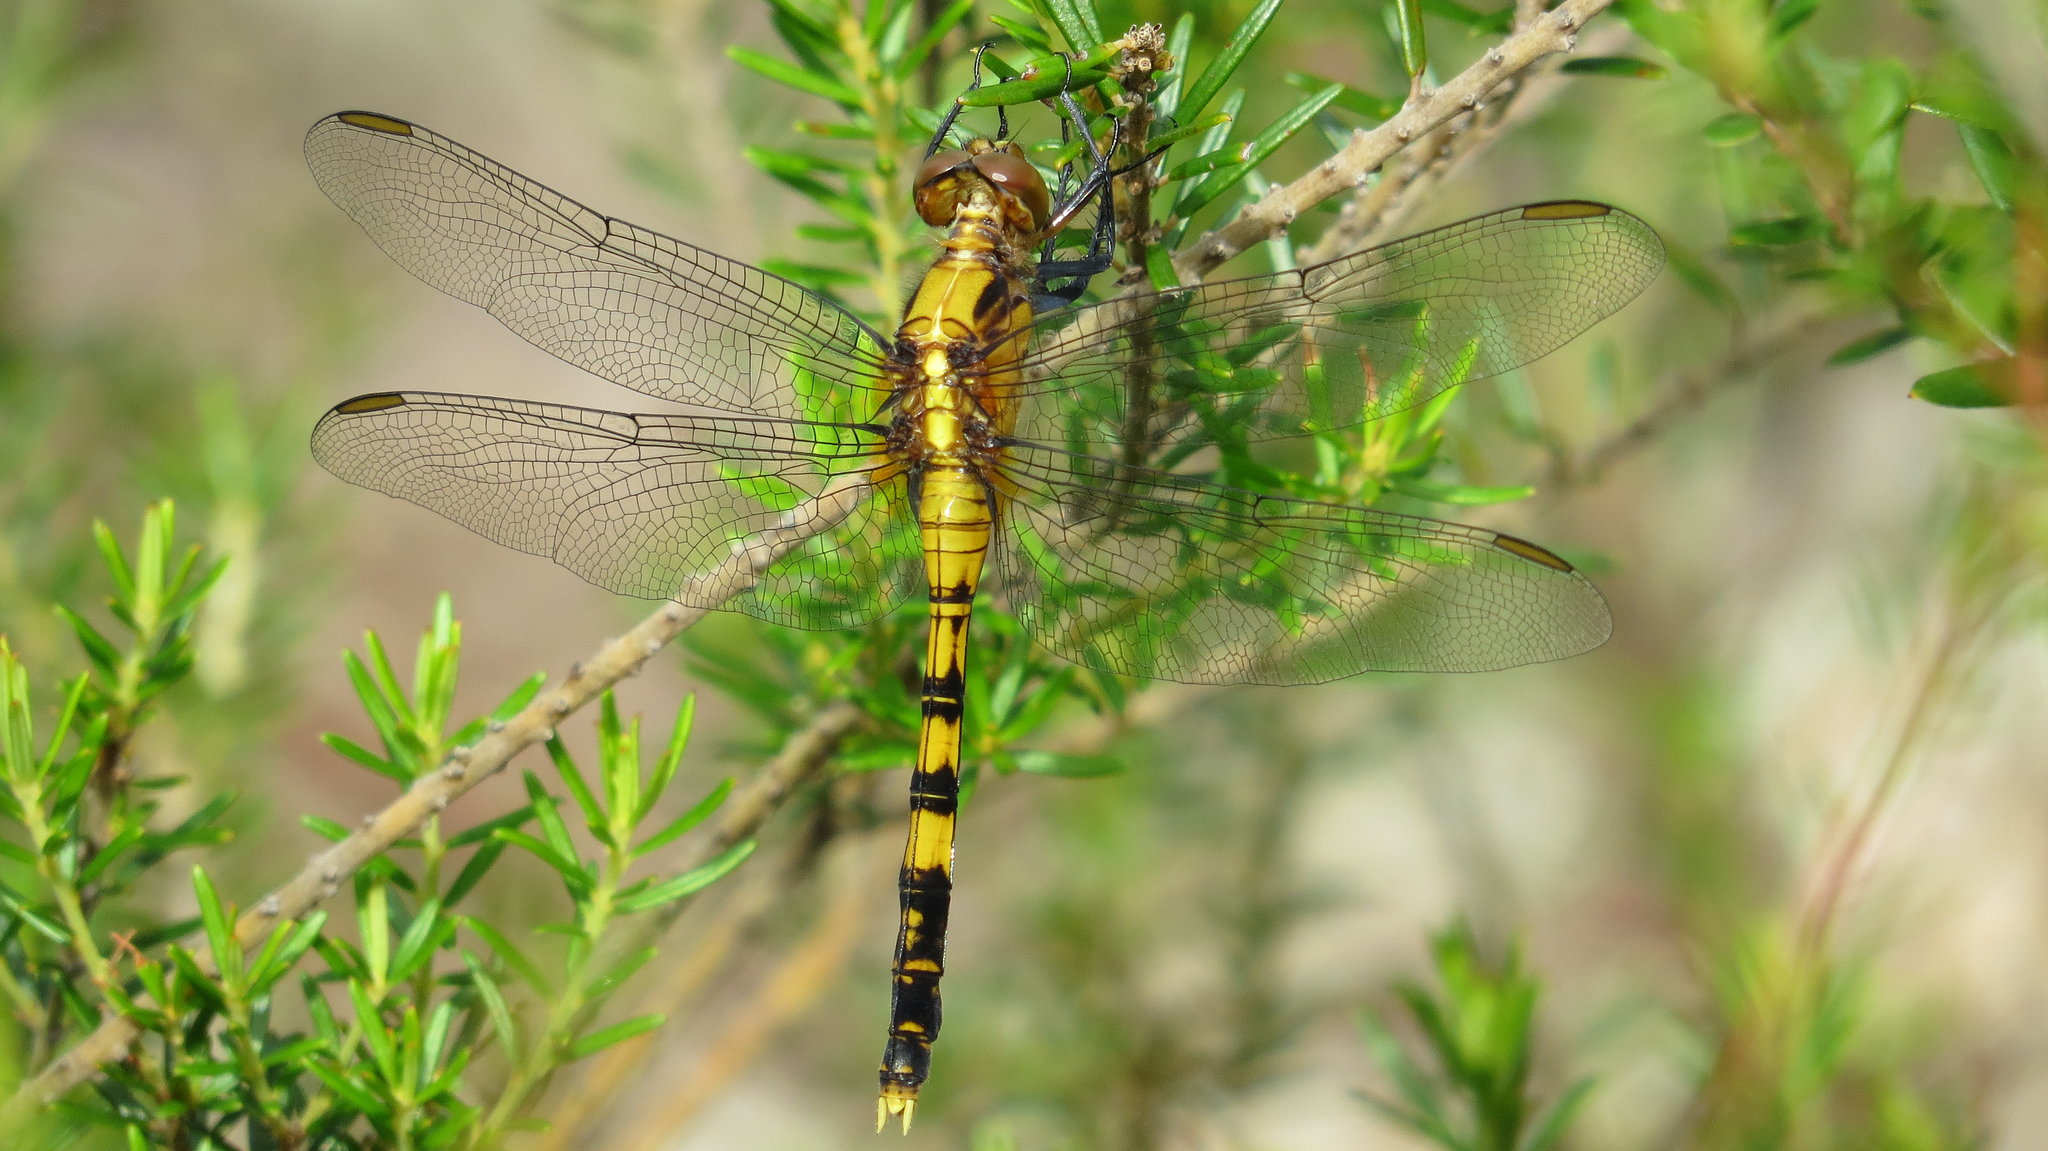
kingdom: Animalia
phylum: Arthropoda
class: Insecta
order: Odonata
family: Libellulidae
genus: Orthetrum
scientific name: Orthetrum boumiera
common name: Brownwater skimmer
